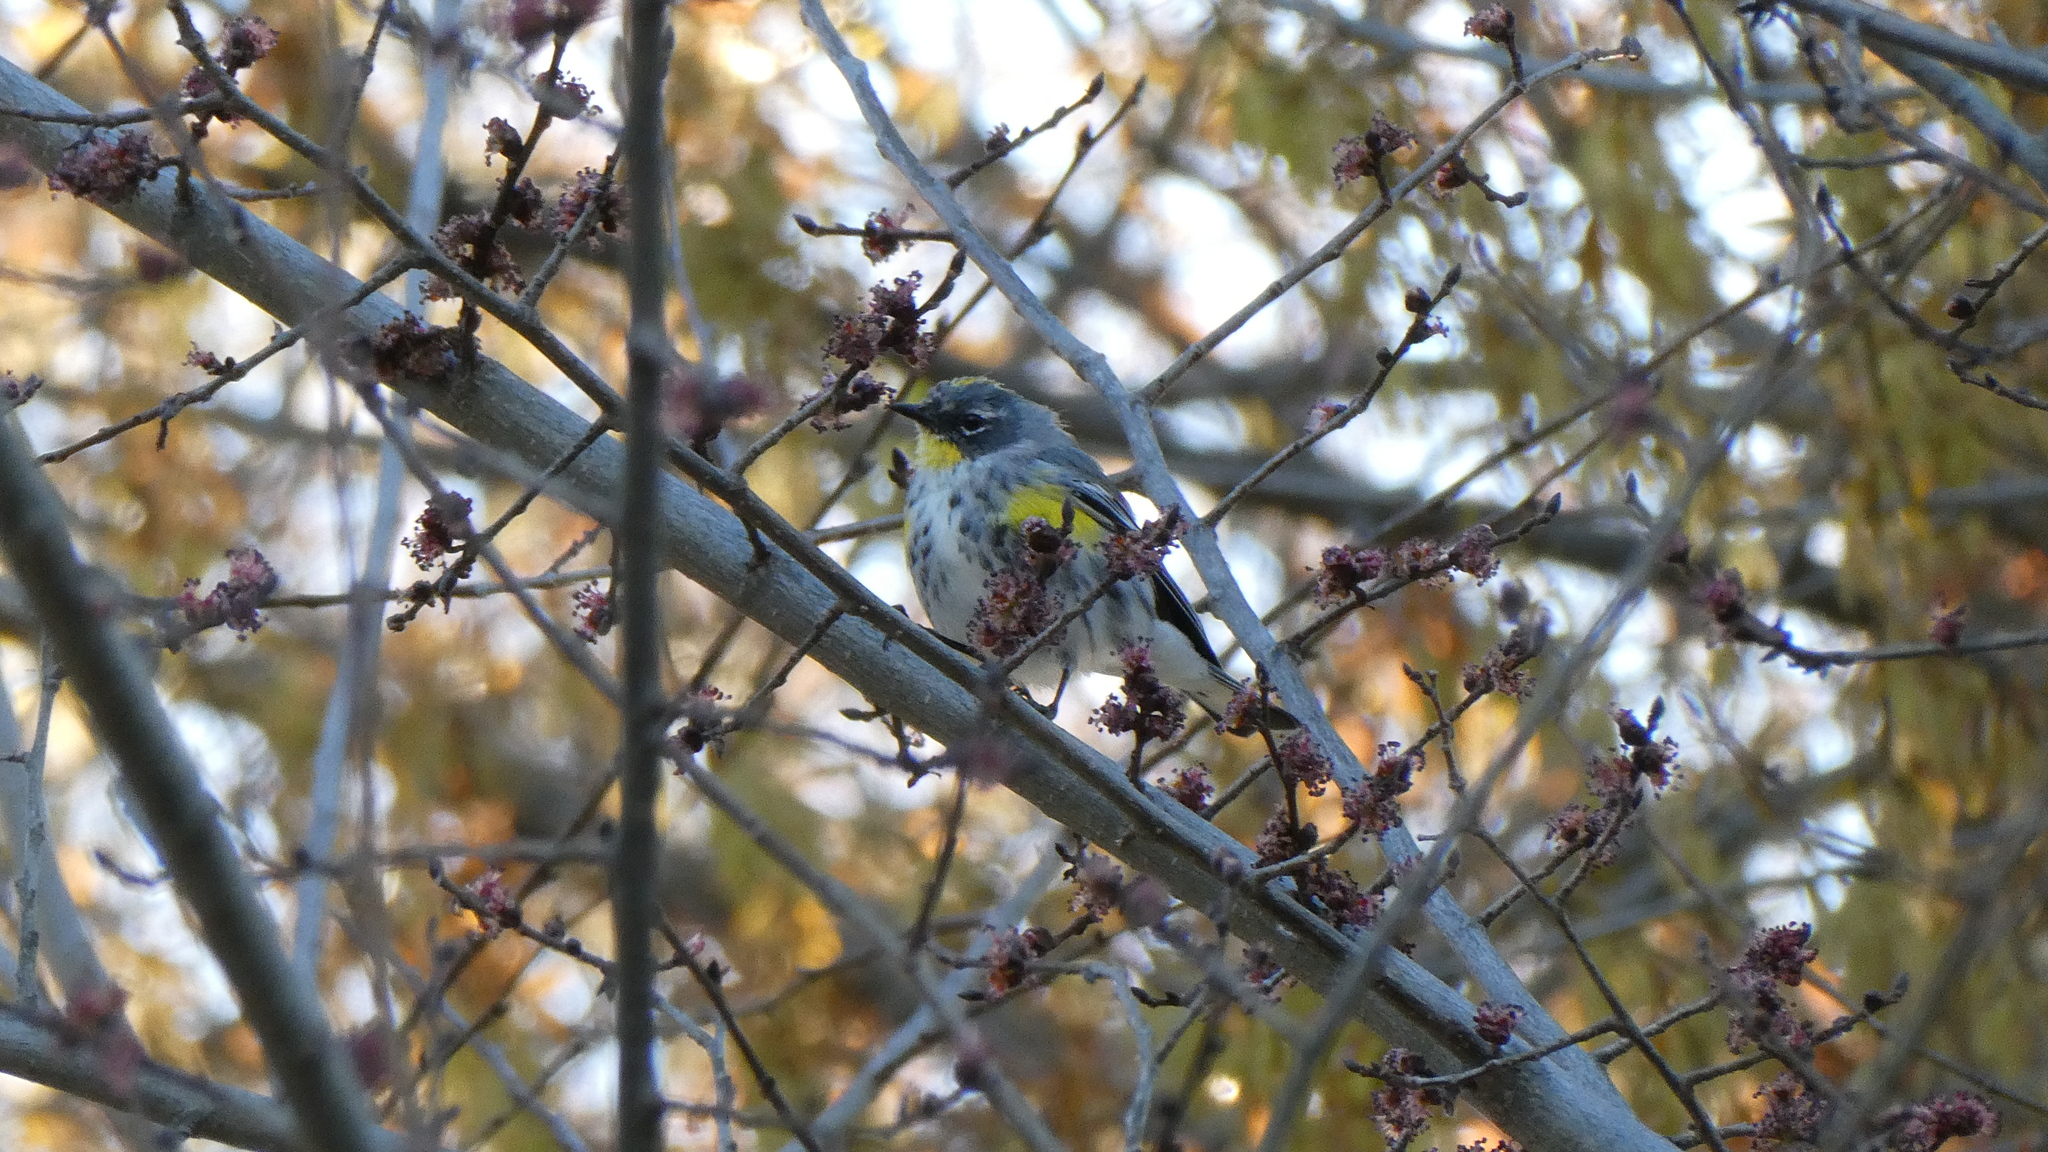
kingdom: Animalia
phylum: Chordata
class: Aves
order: Passeriformes
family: Parulidae
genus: Setophaga
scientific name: Setophaga coronata
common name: Myrtle warbler
